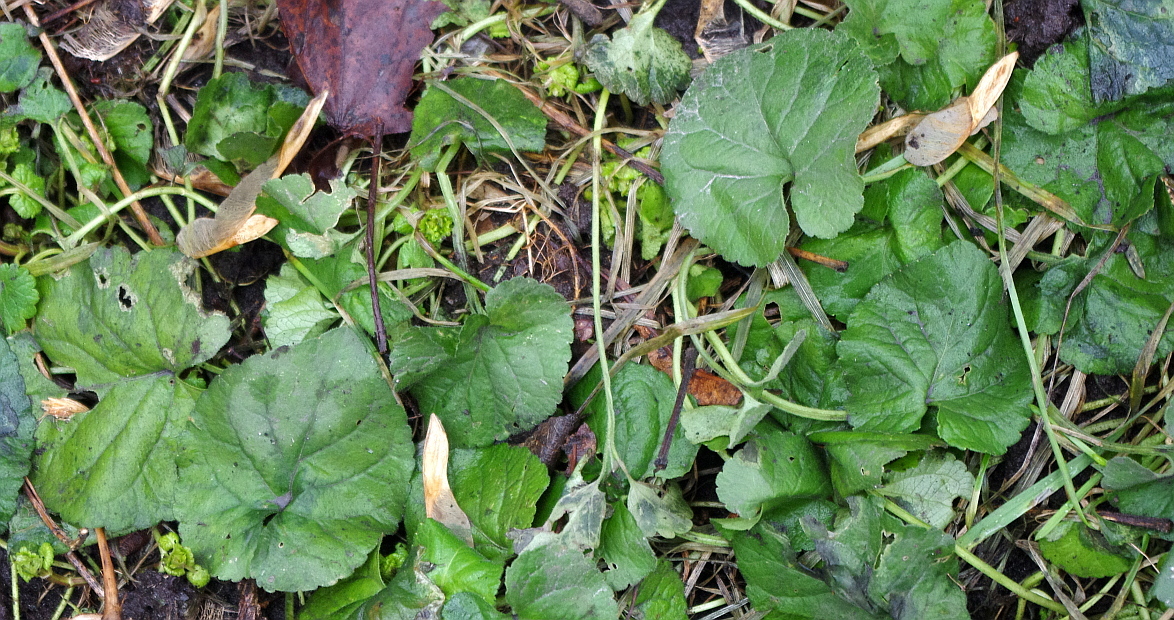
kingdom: Plantae
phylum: Tracheophyta
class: Magnoliopsida
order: Malpighiales
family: Violaceae
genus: Viola
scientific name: Viola odorata
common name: Sweet violet
